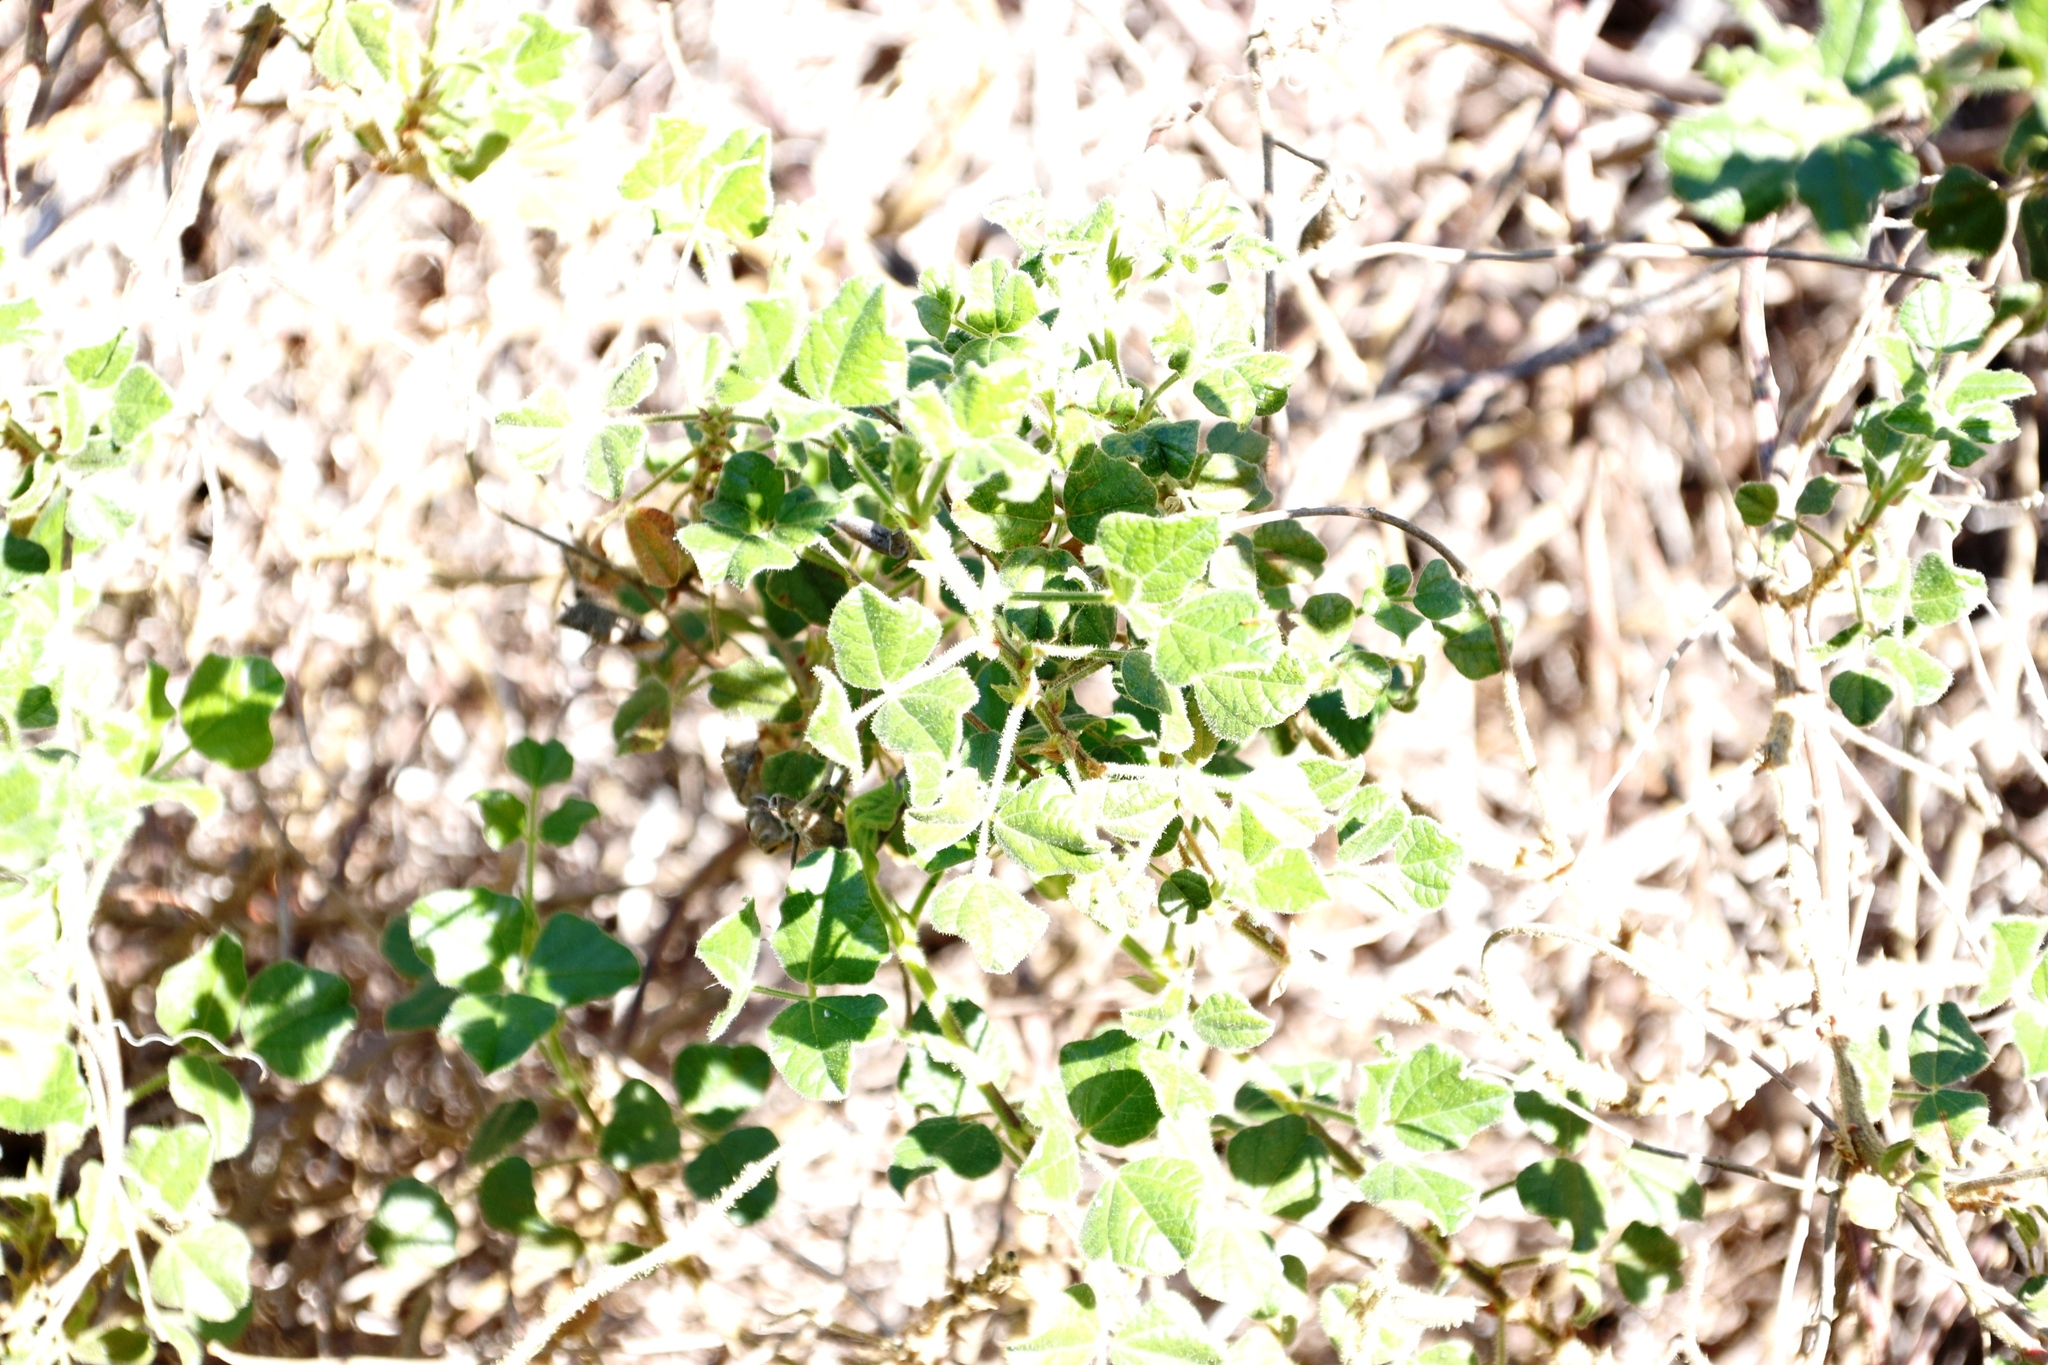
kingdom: Plantae
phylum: Tracheophyta
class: Magnoliopsida
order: Fabales
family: Fabaceae
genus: Bolusafra
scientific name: Bolusafra bituminosa
